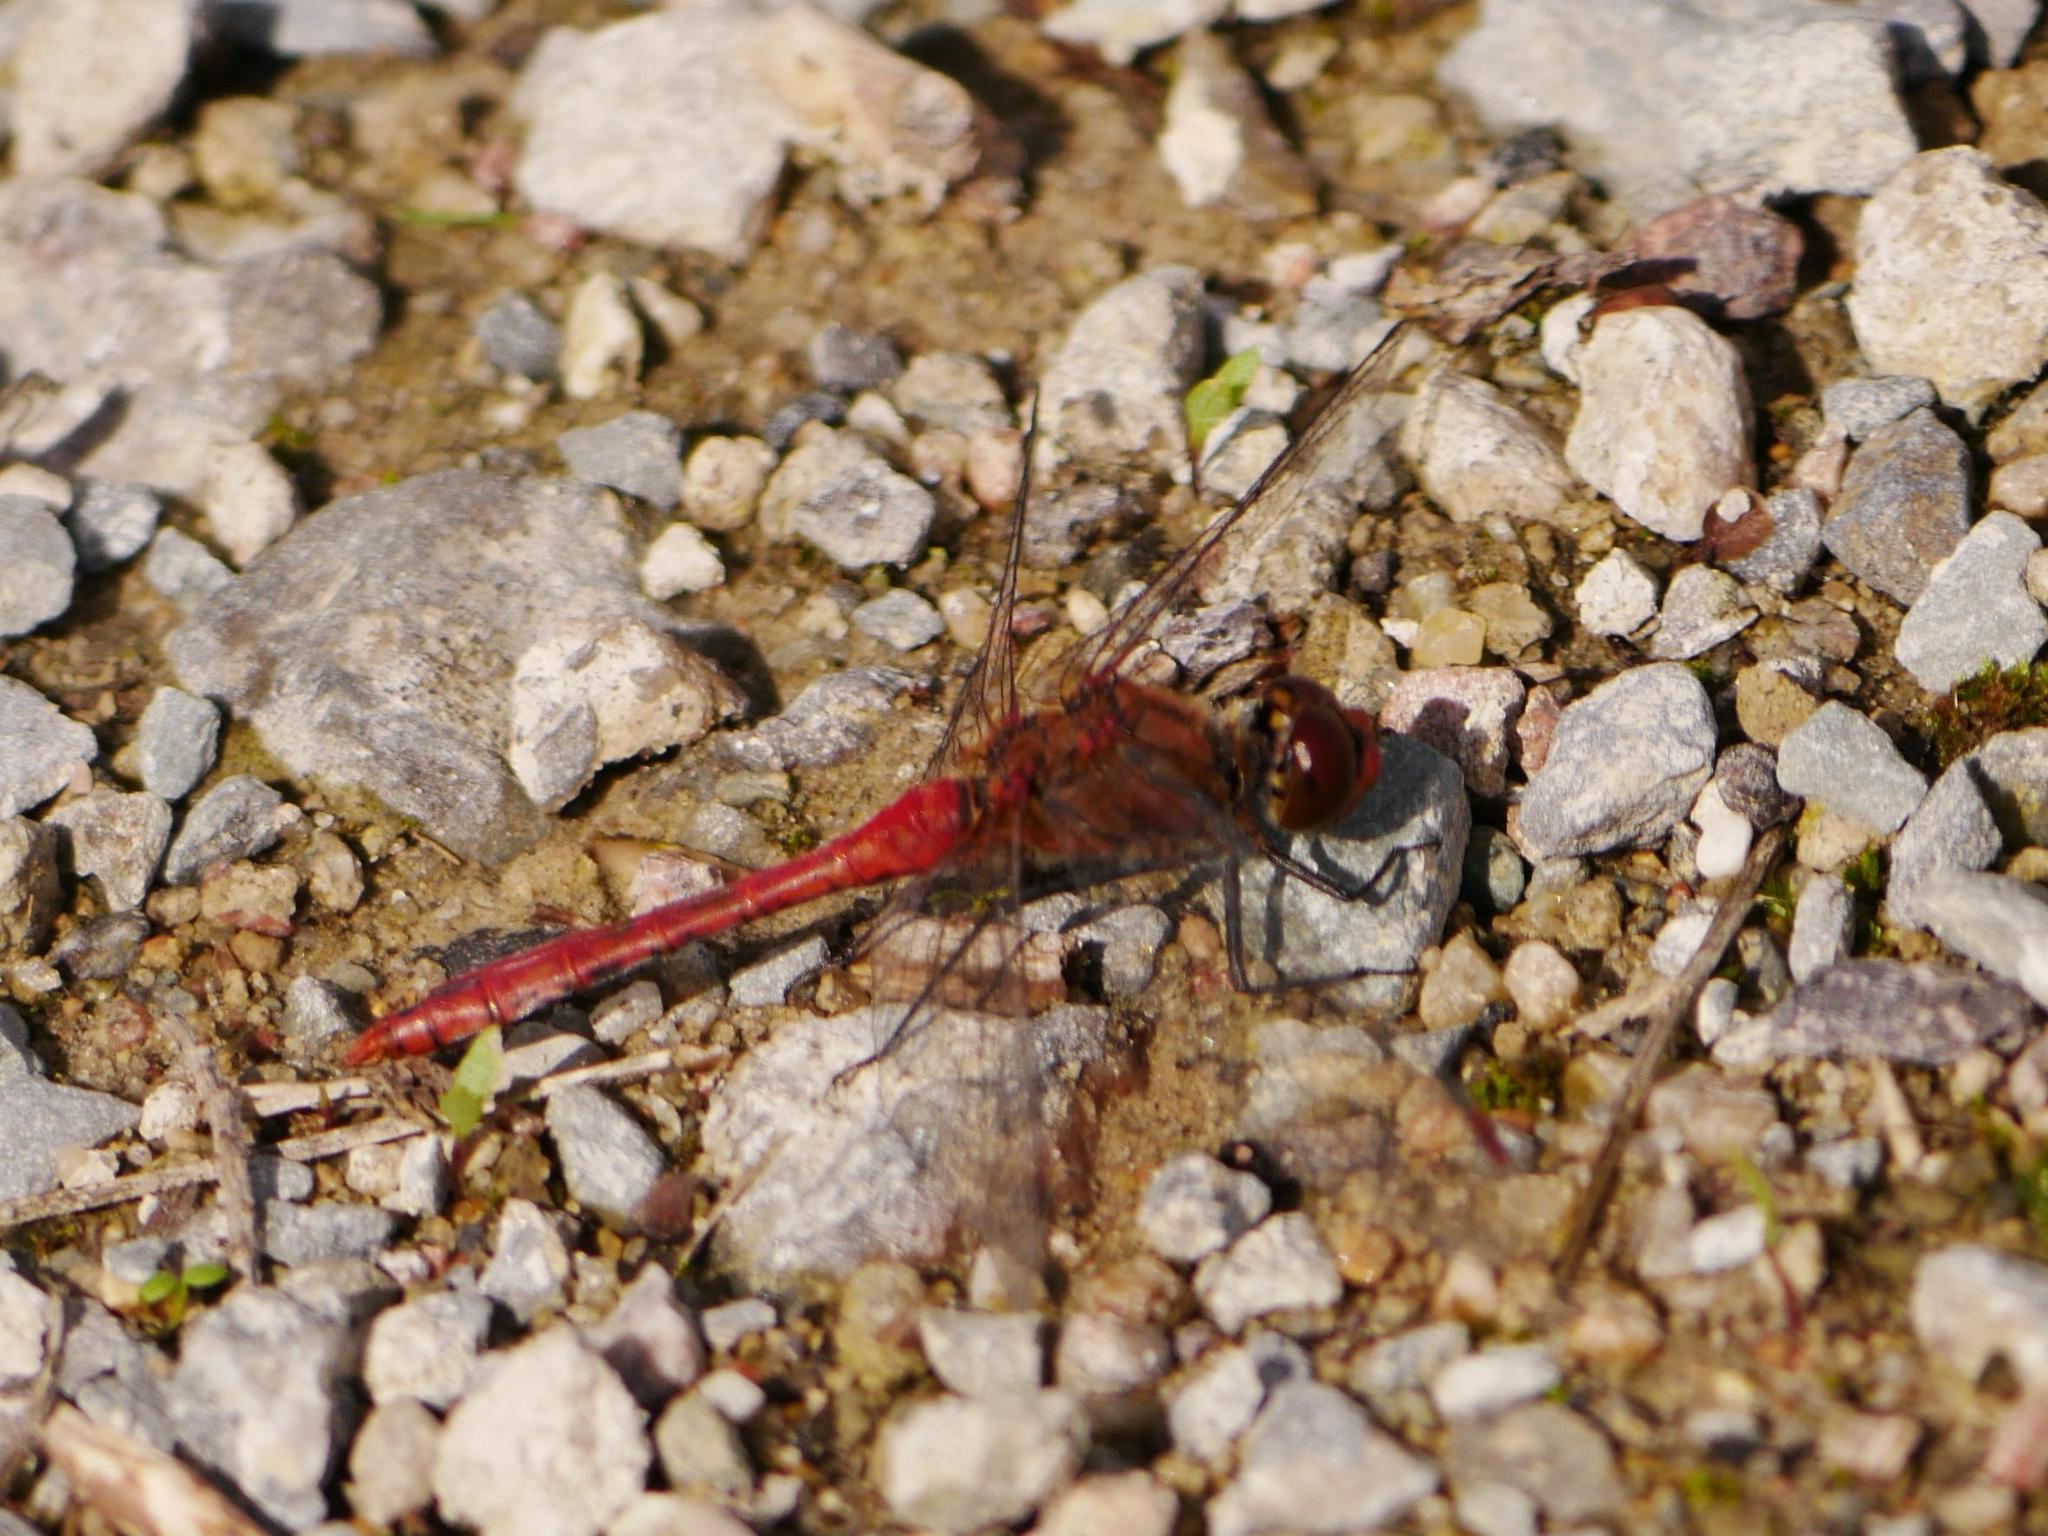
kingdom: Animalia
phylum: Arthropoda
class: Insecta
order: Odonata
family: Libellulidae
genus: Sympetrum
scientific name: Sympetrum sanguineum
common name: Ruddy darter
